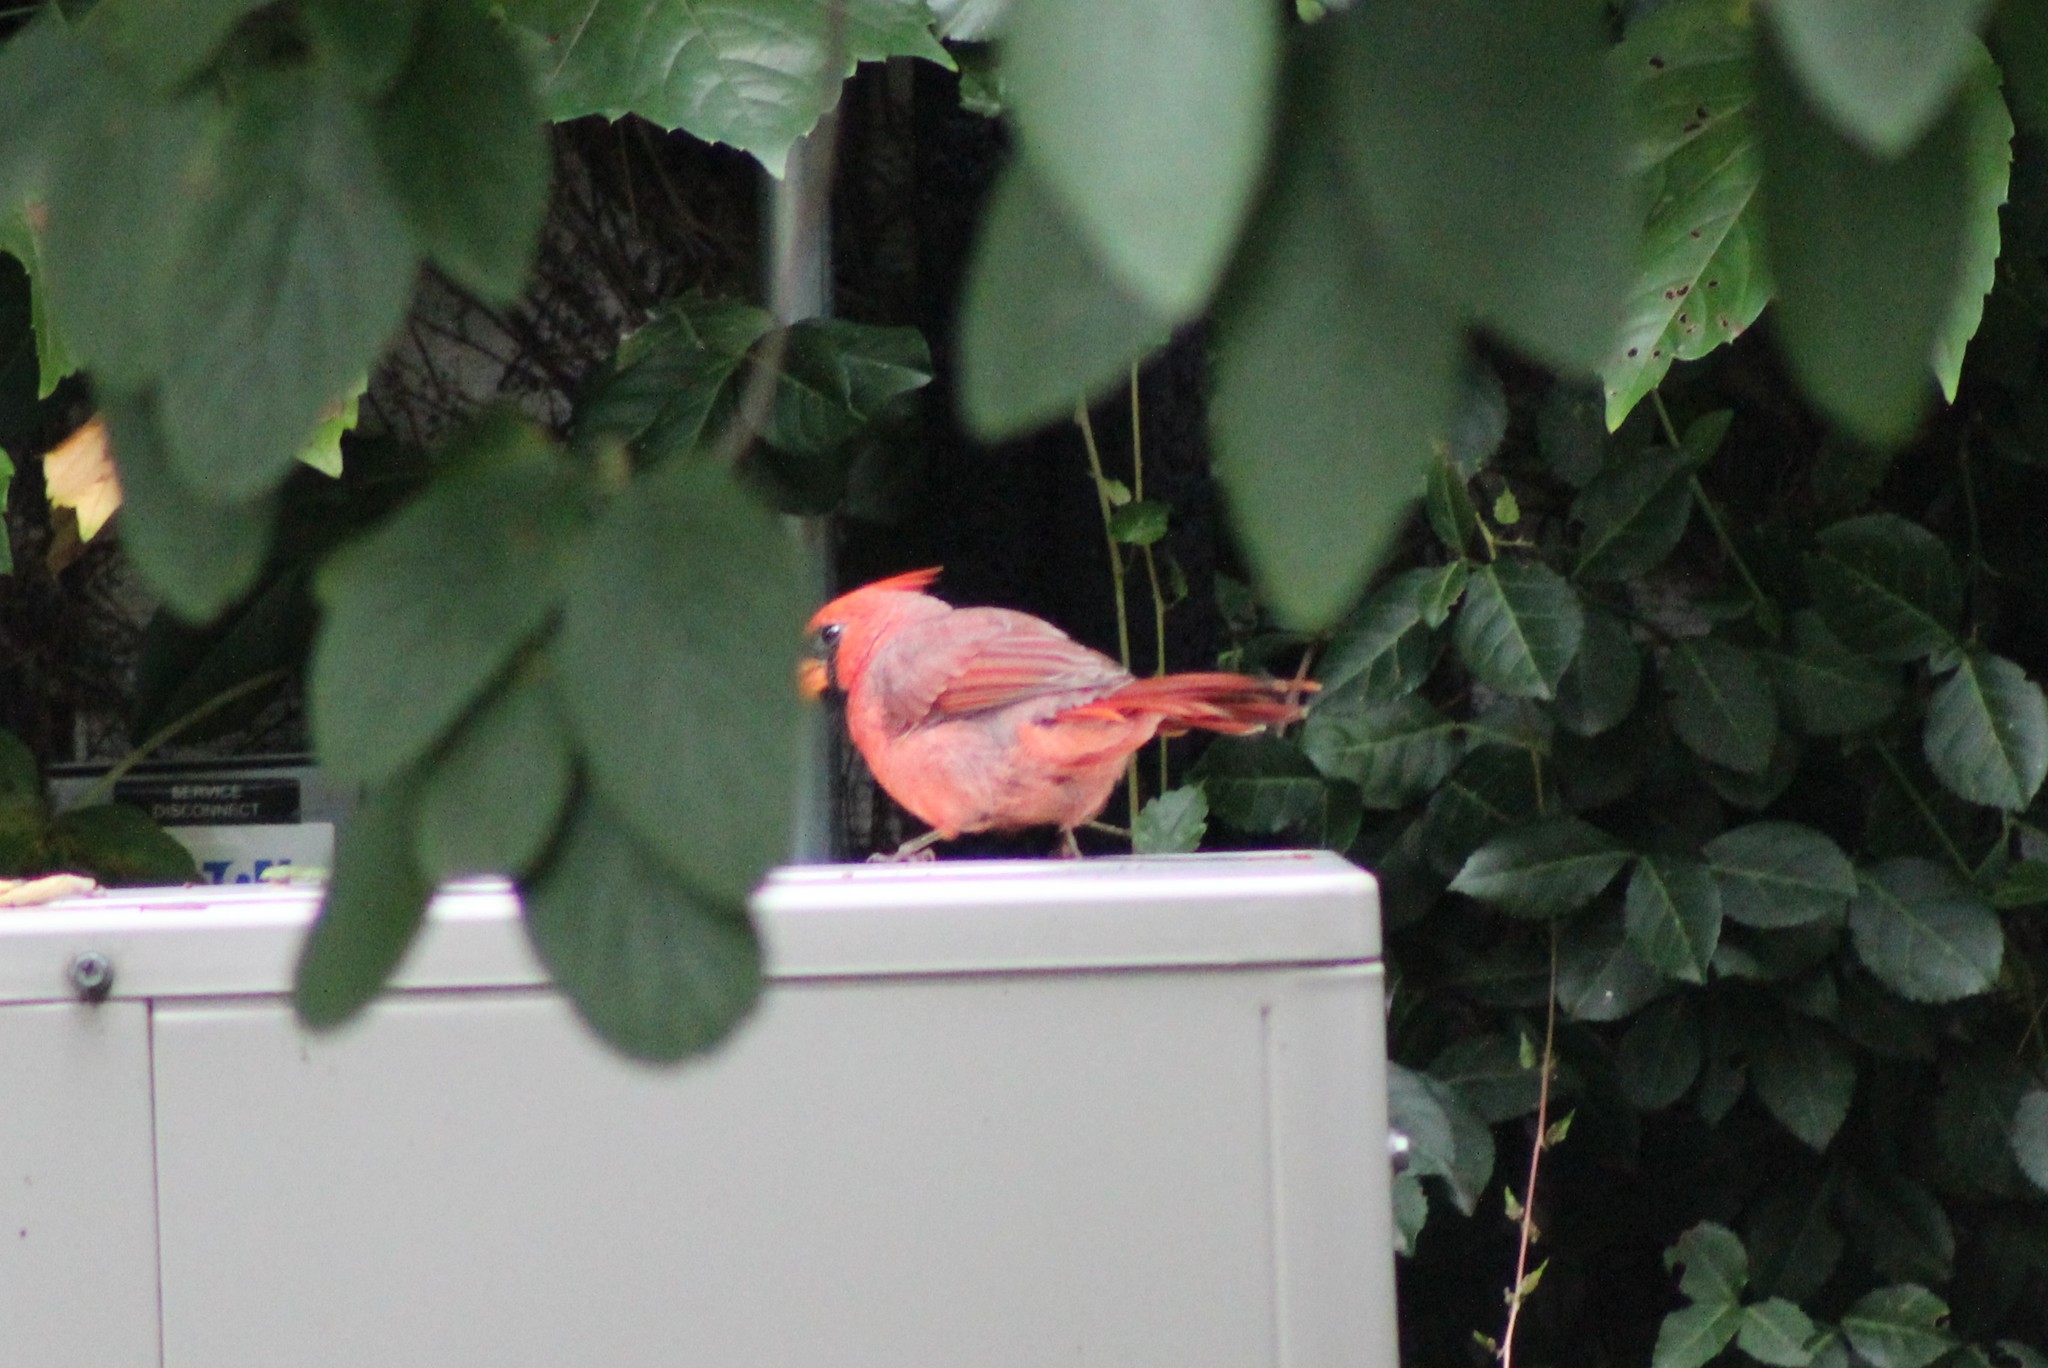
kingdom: Animalia
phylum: Chordata
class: Aves
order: Passeriformes
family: Cardinalidae
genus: Cardinalis
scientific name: Cardinalis cardinalis
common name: Northern cardinal
